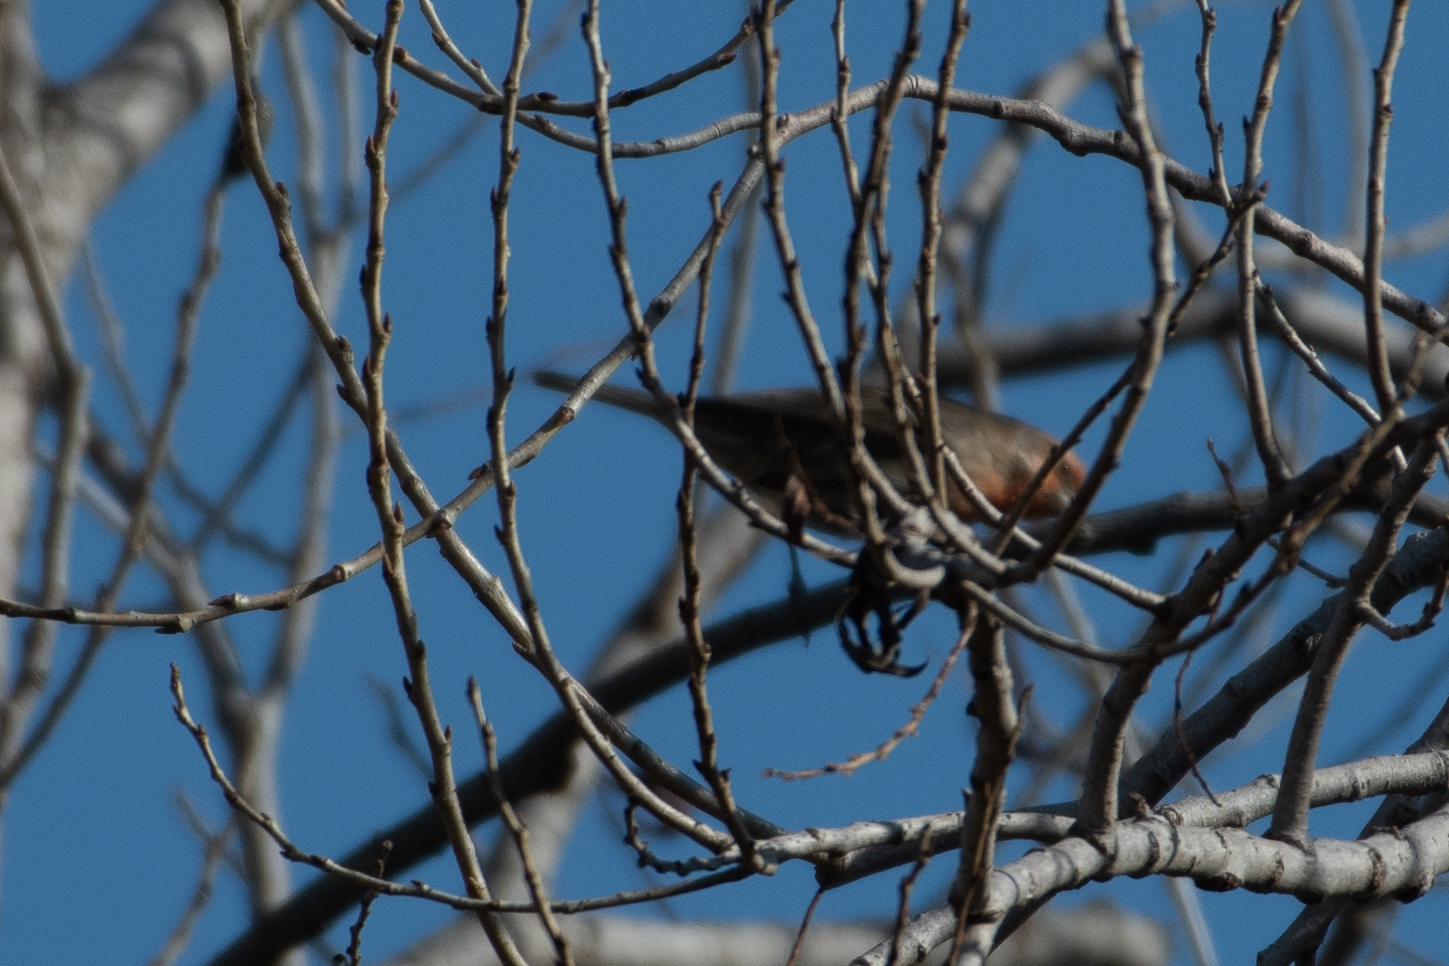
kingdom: Animalia
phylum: Chordata
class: Aves
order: Passeriformes
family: Fringillidae
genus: Haemorhous
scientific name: Haemorhous mexicanus
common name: House finch
